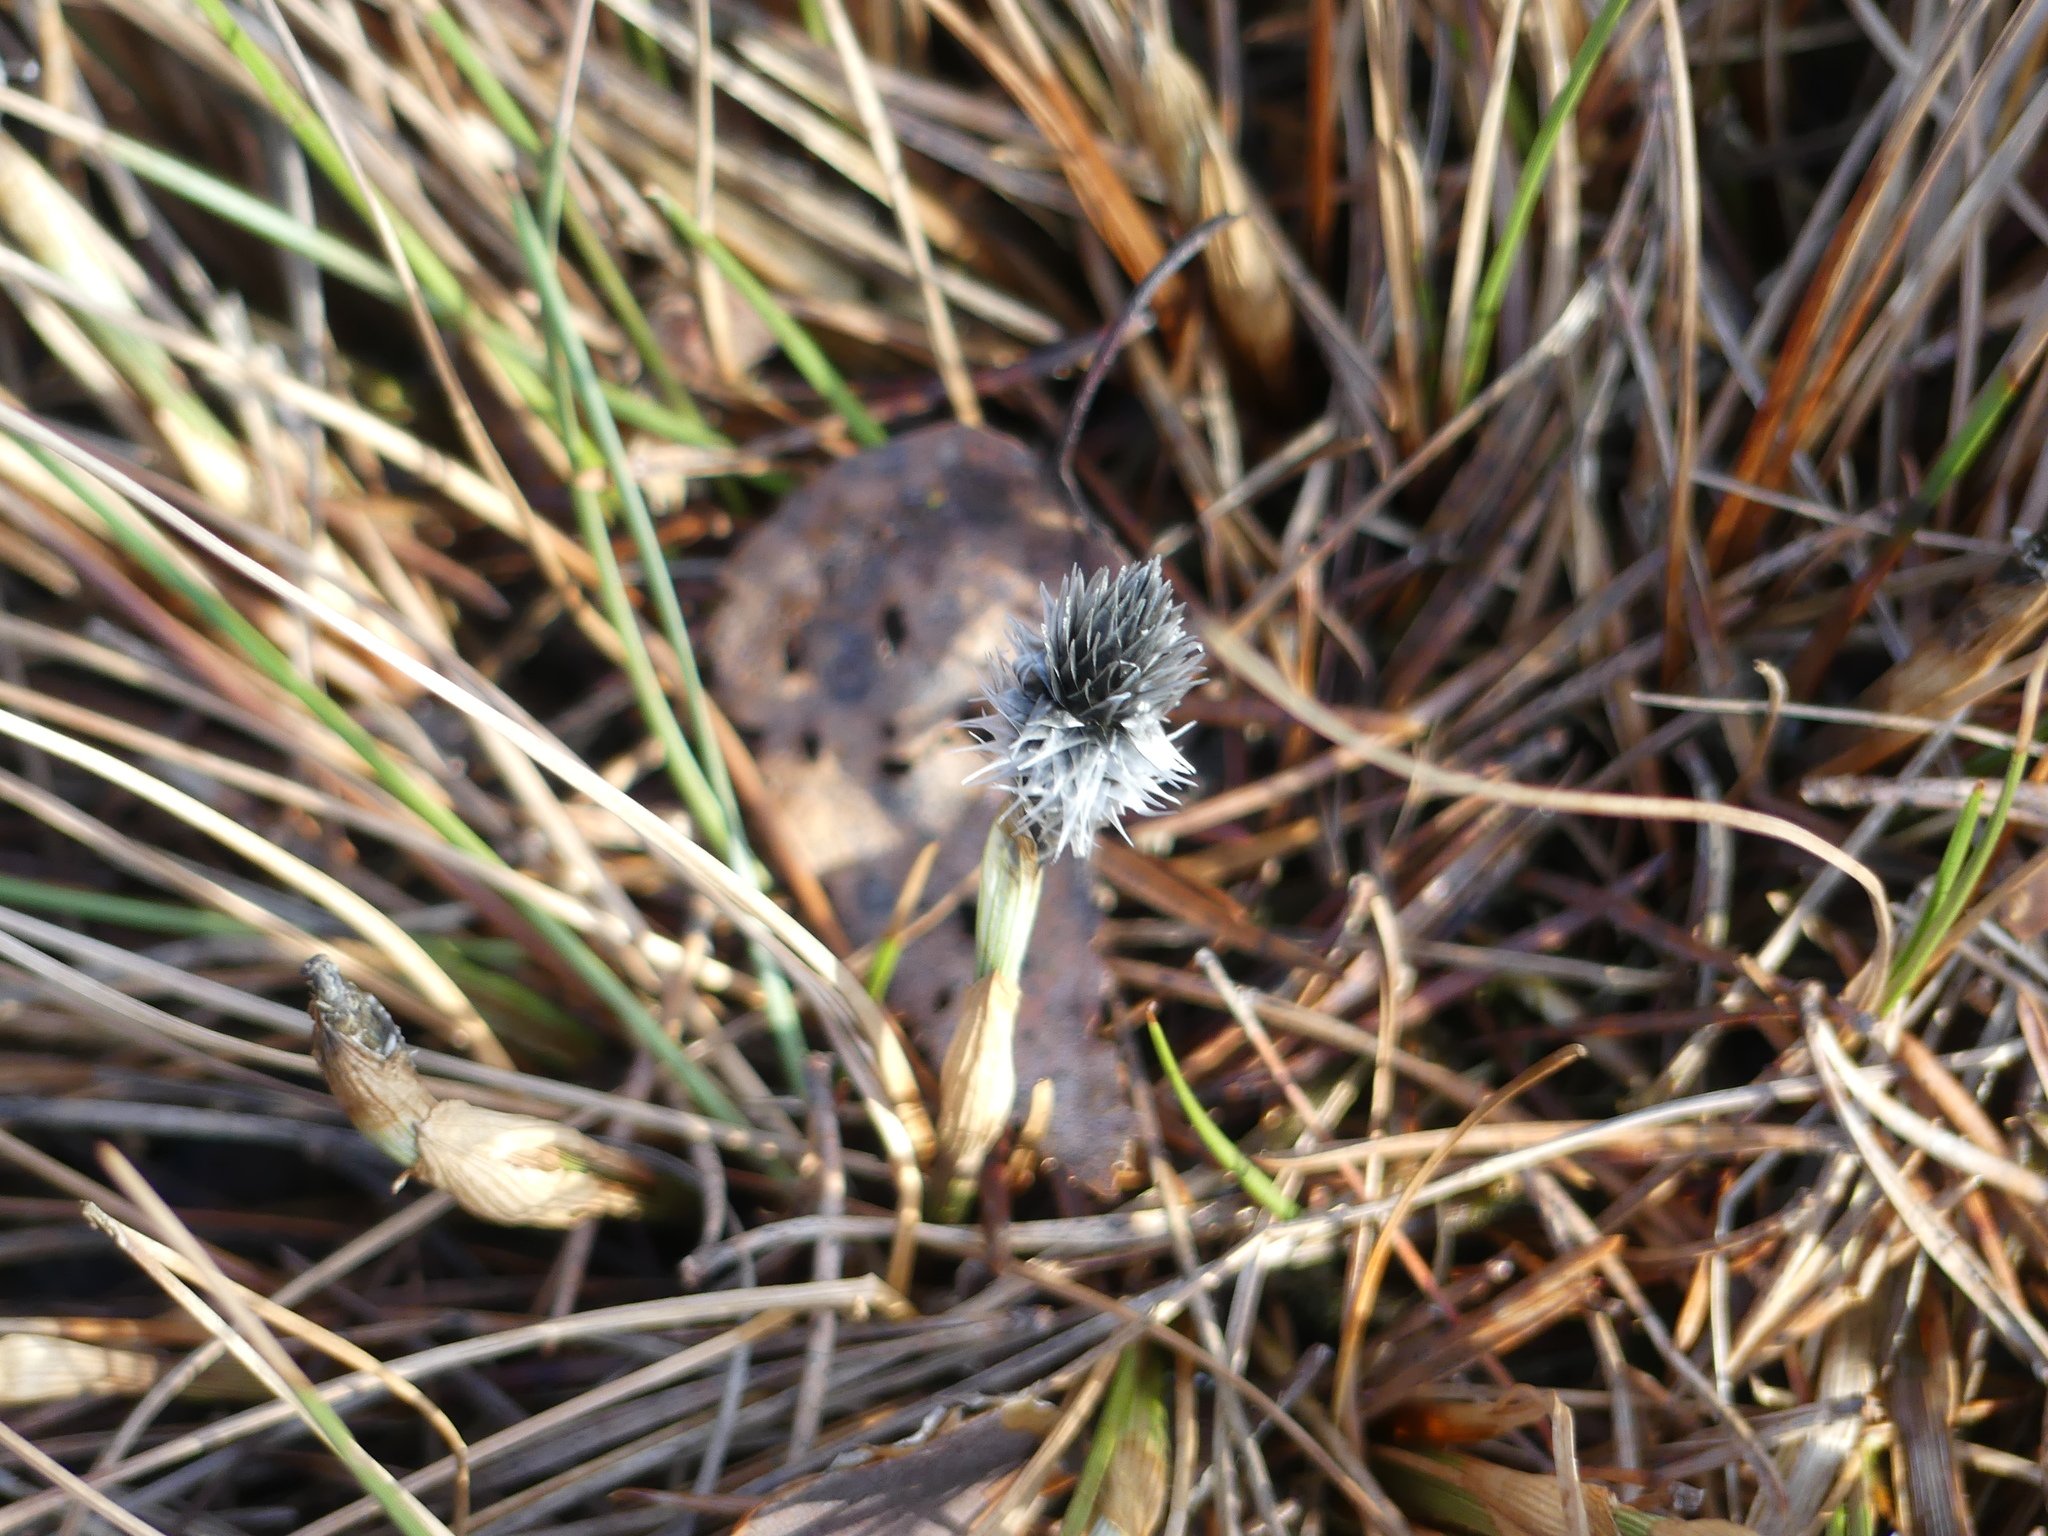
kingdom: Plantae
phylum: Tracheophyta
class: Liliopsida
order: Poales
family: Cyperaceae
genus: Eriophorum
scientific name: Eriophorum vaginatum
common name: Hare's-tail cottongrass
